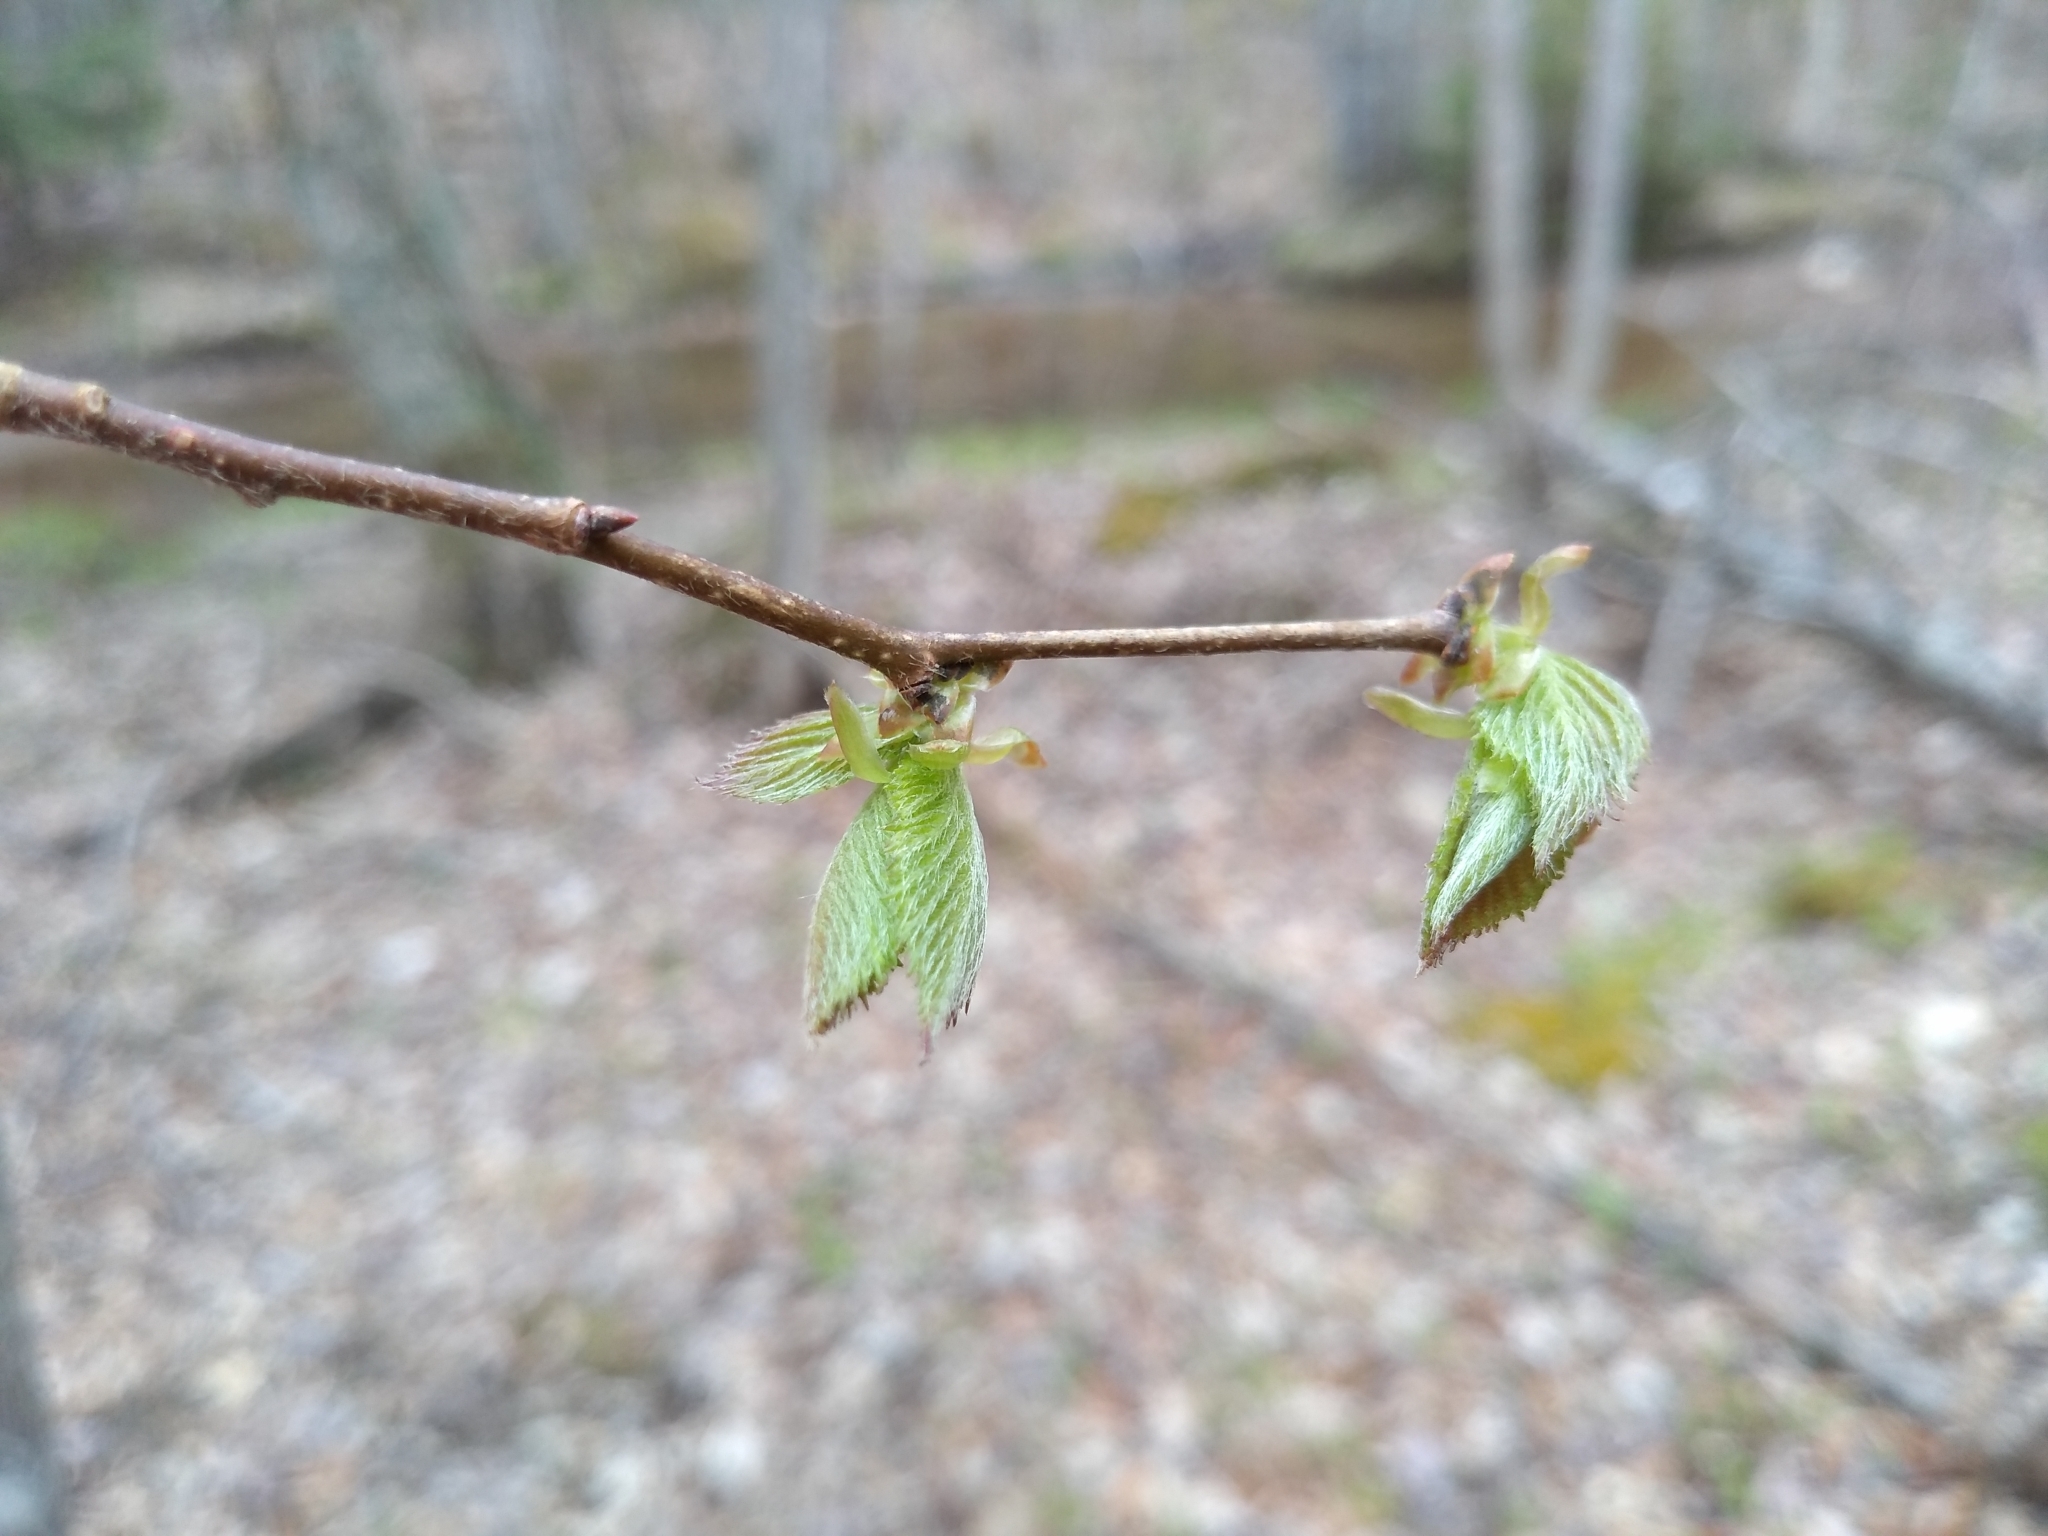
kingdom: Plantae
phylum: Tracheophyta
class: Magnoliopsida
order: Fagales
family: Betulaceae
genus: Ostrya
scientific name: Ostrya virginiana
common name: Ironwood
